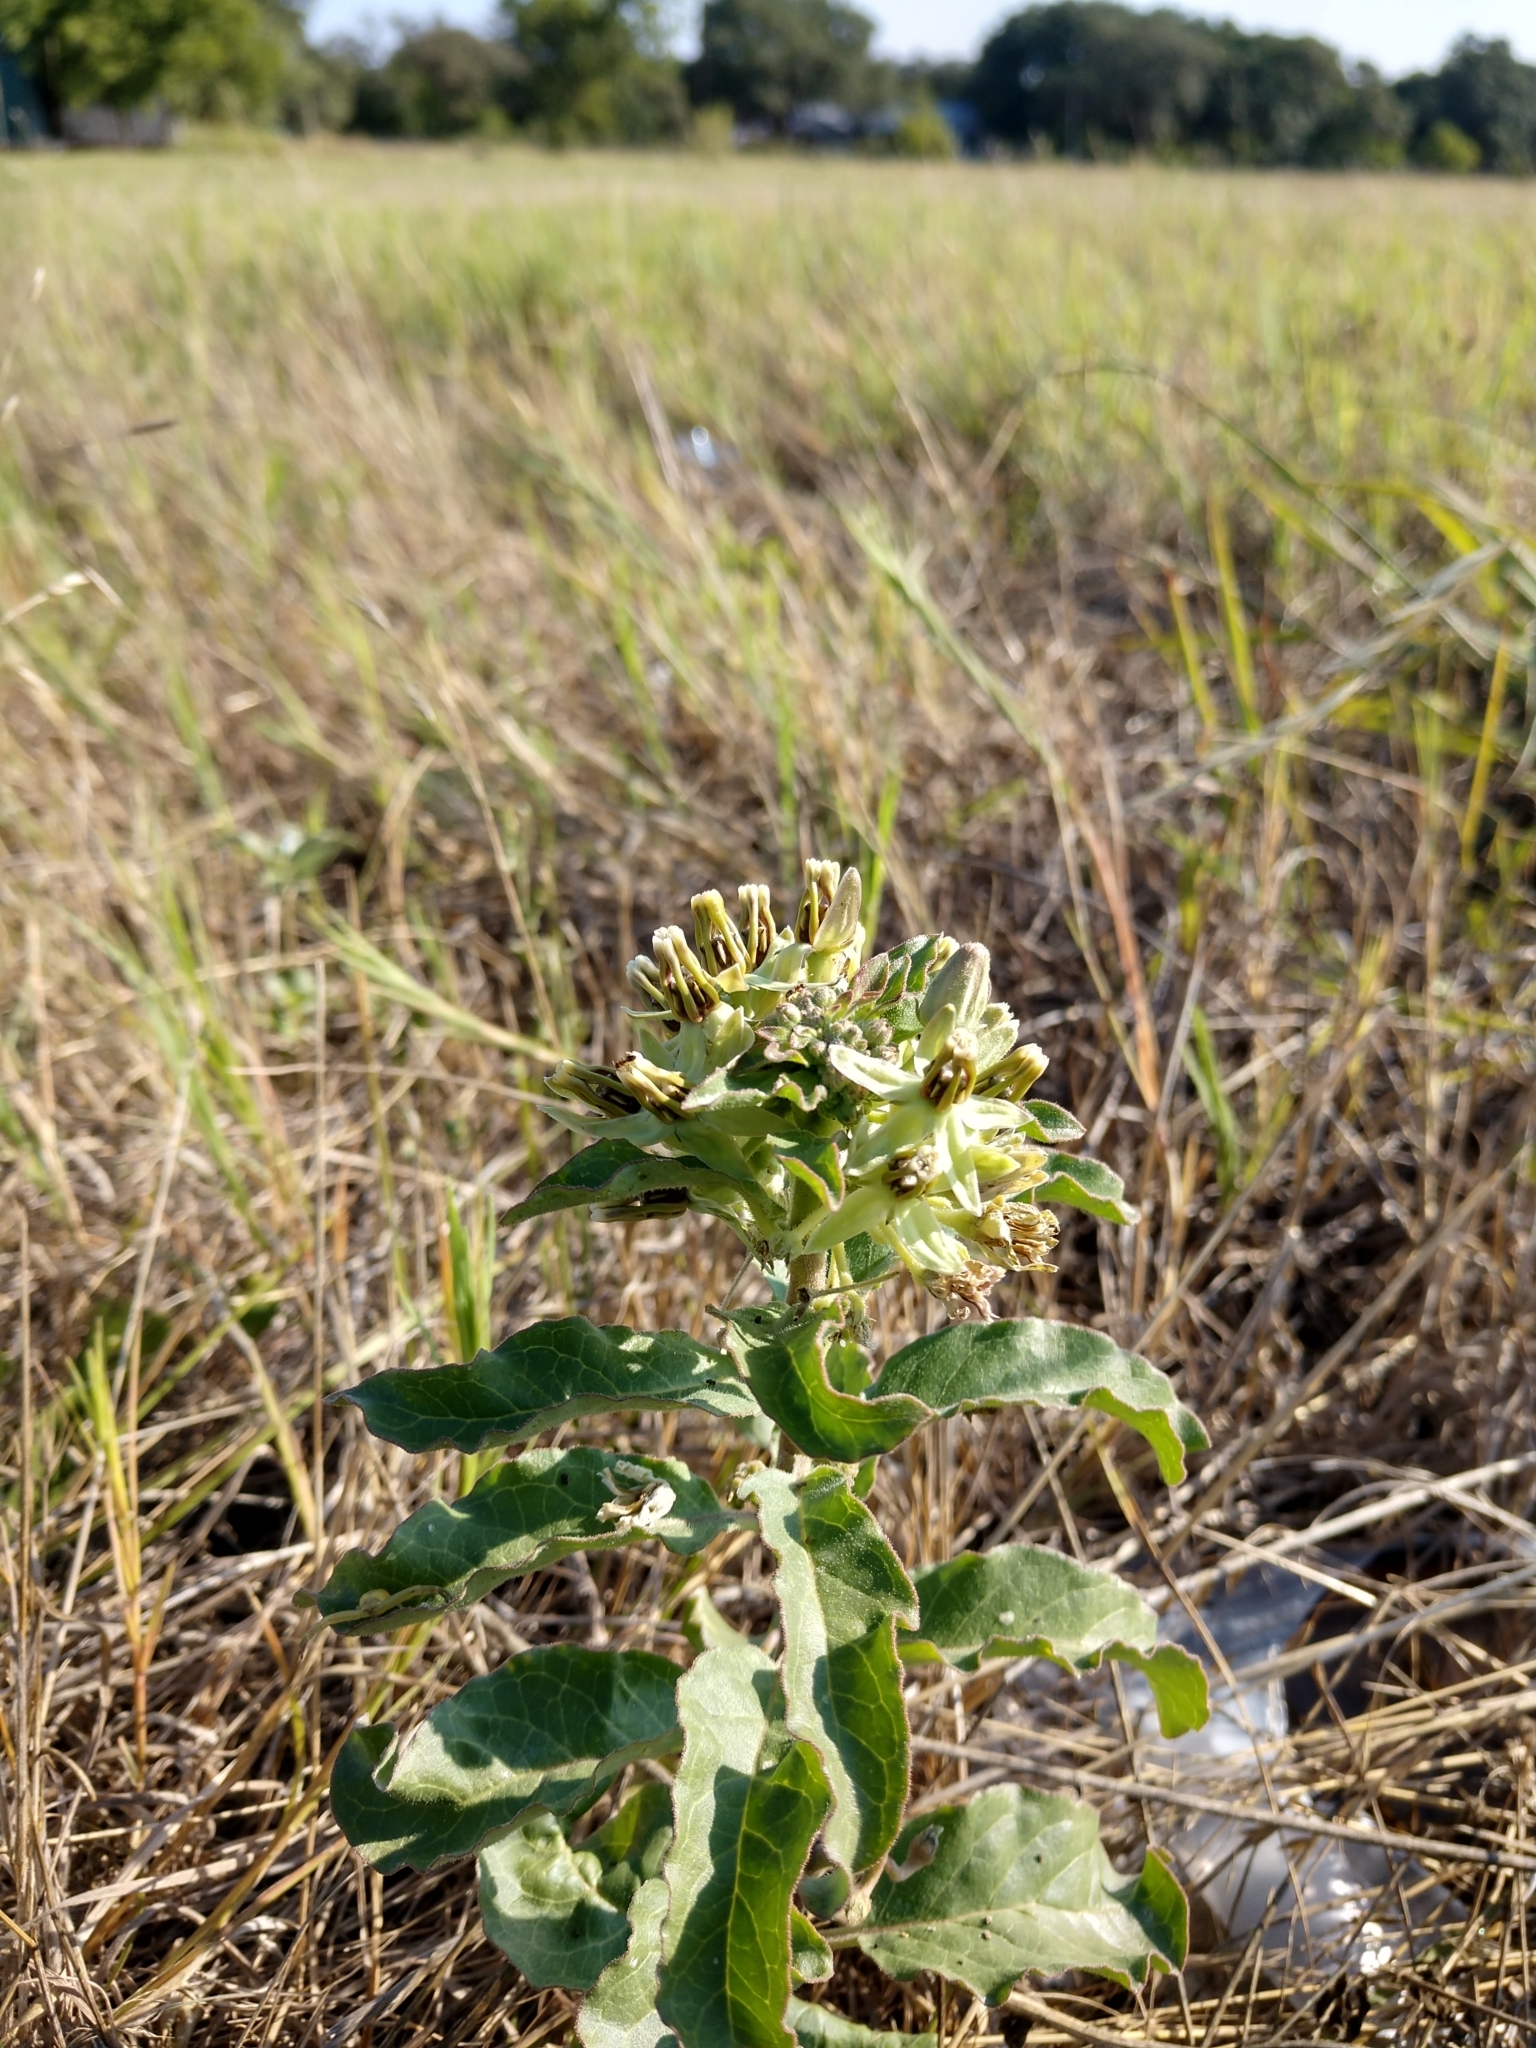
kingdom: Plantae
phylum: Tracheophyta
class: Magnoliopsida
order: Gentianales
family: Apocynaceae
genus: Asclepias
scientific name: Asclepias oenotheroides
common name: Zizotes milkweed
